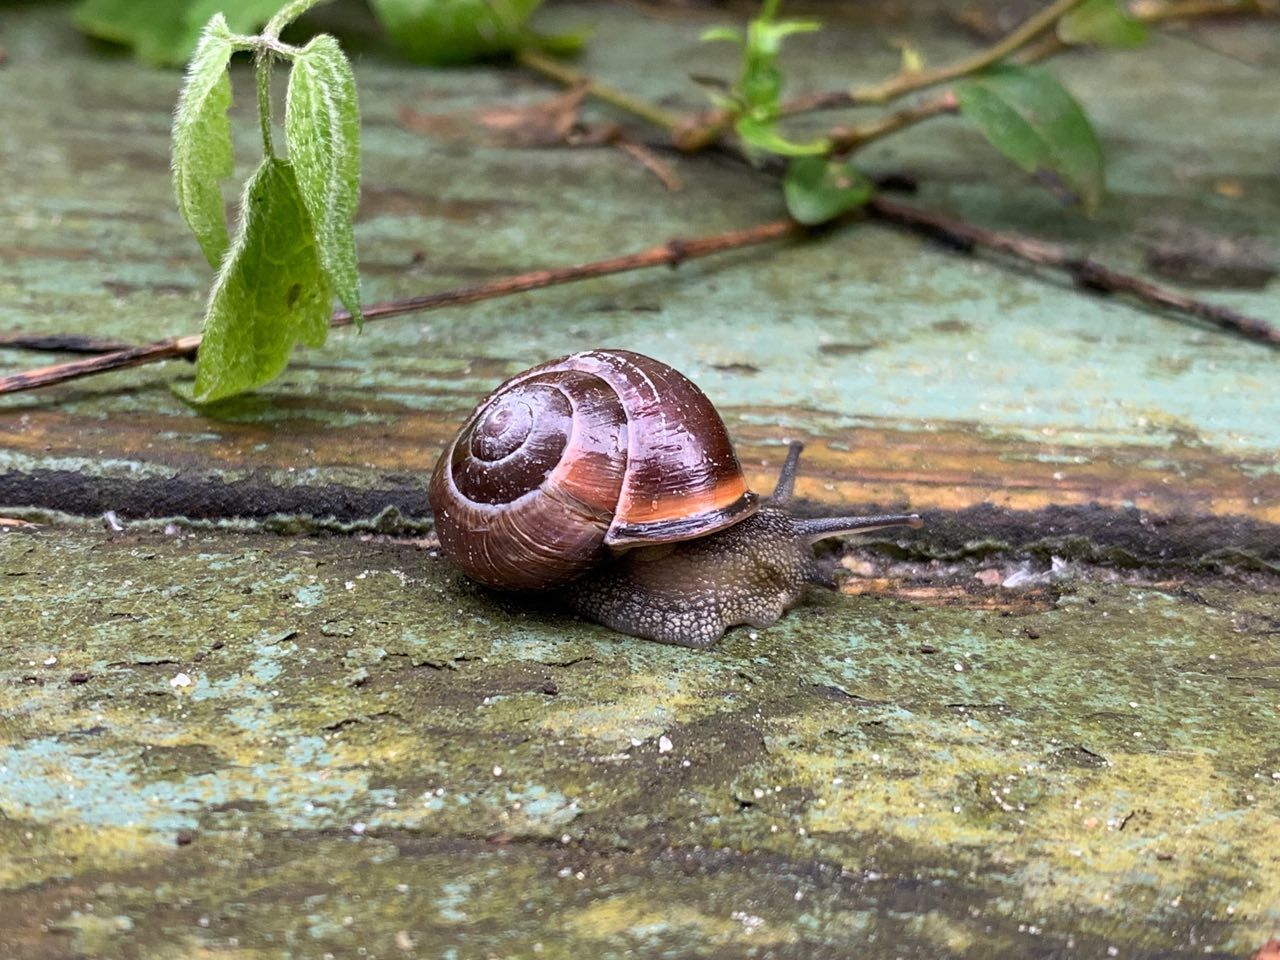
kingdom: Animalia
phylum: Mollusca
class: Gastropoda
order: Stylommatophora
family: Helicidae
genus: Cepaea
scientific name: Cepaea nemoralis
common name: Grovesnail
